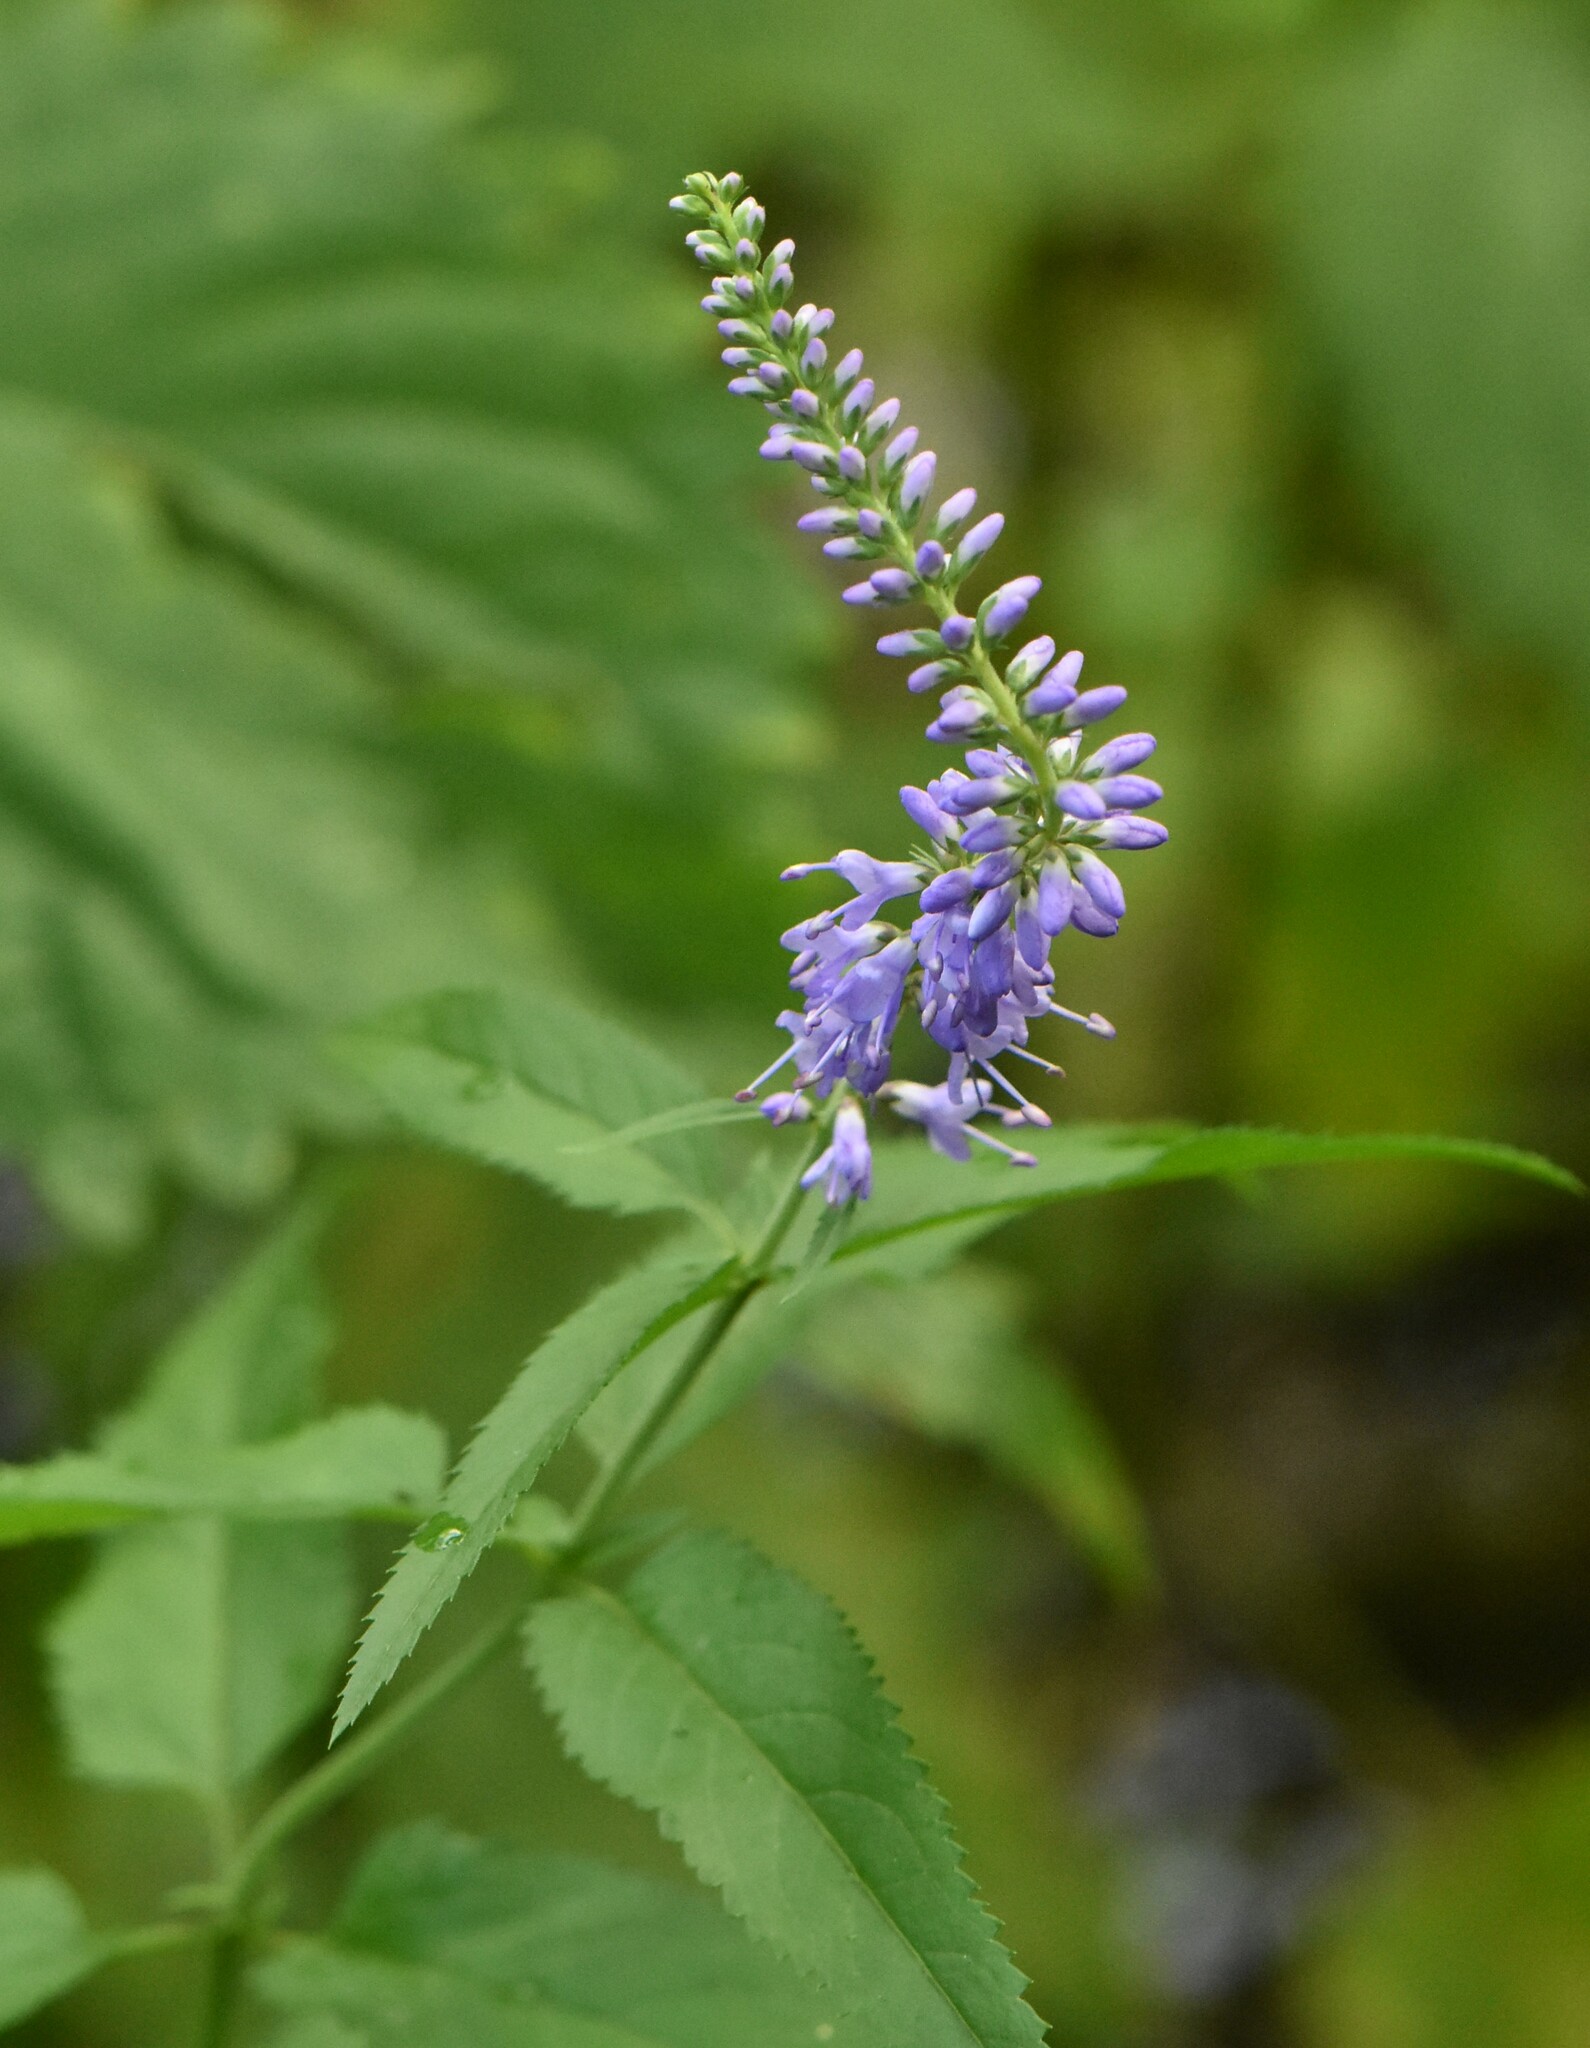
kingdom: Plantae
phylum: Tracheophyta
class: Magnoliopsida
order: Lamiales
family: Plantaginaceae
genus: Veronica
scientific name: Veronica longifolia
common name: Garden speedwell
